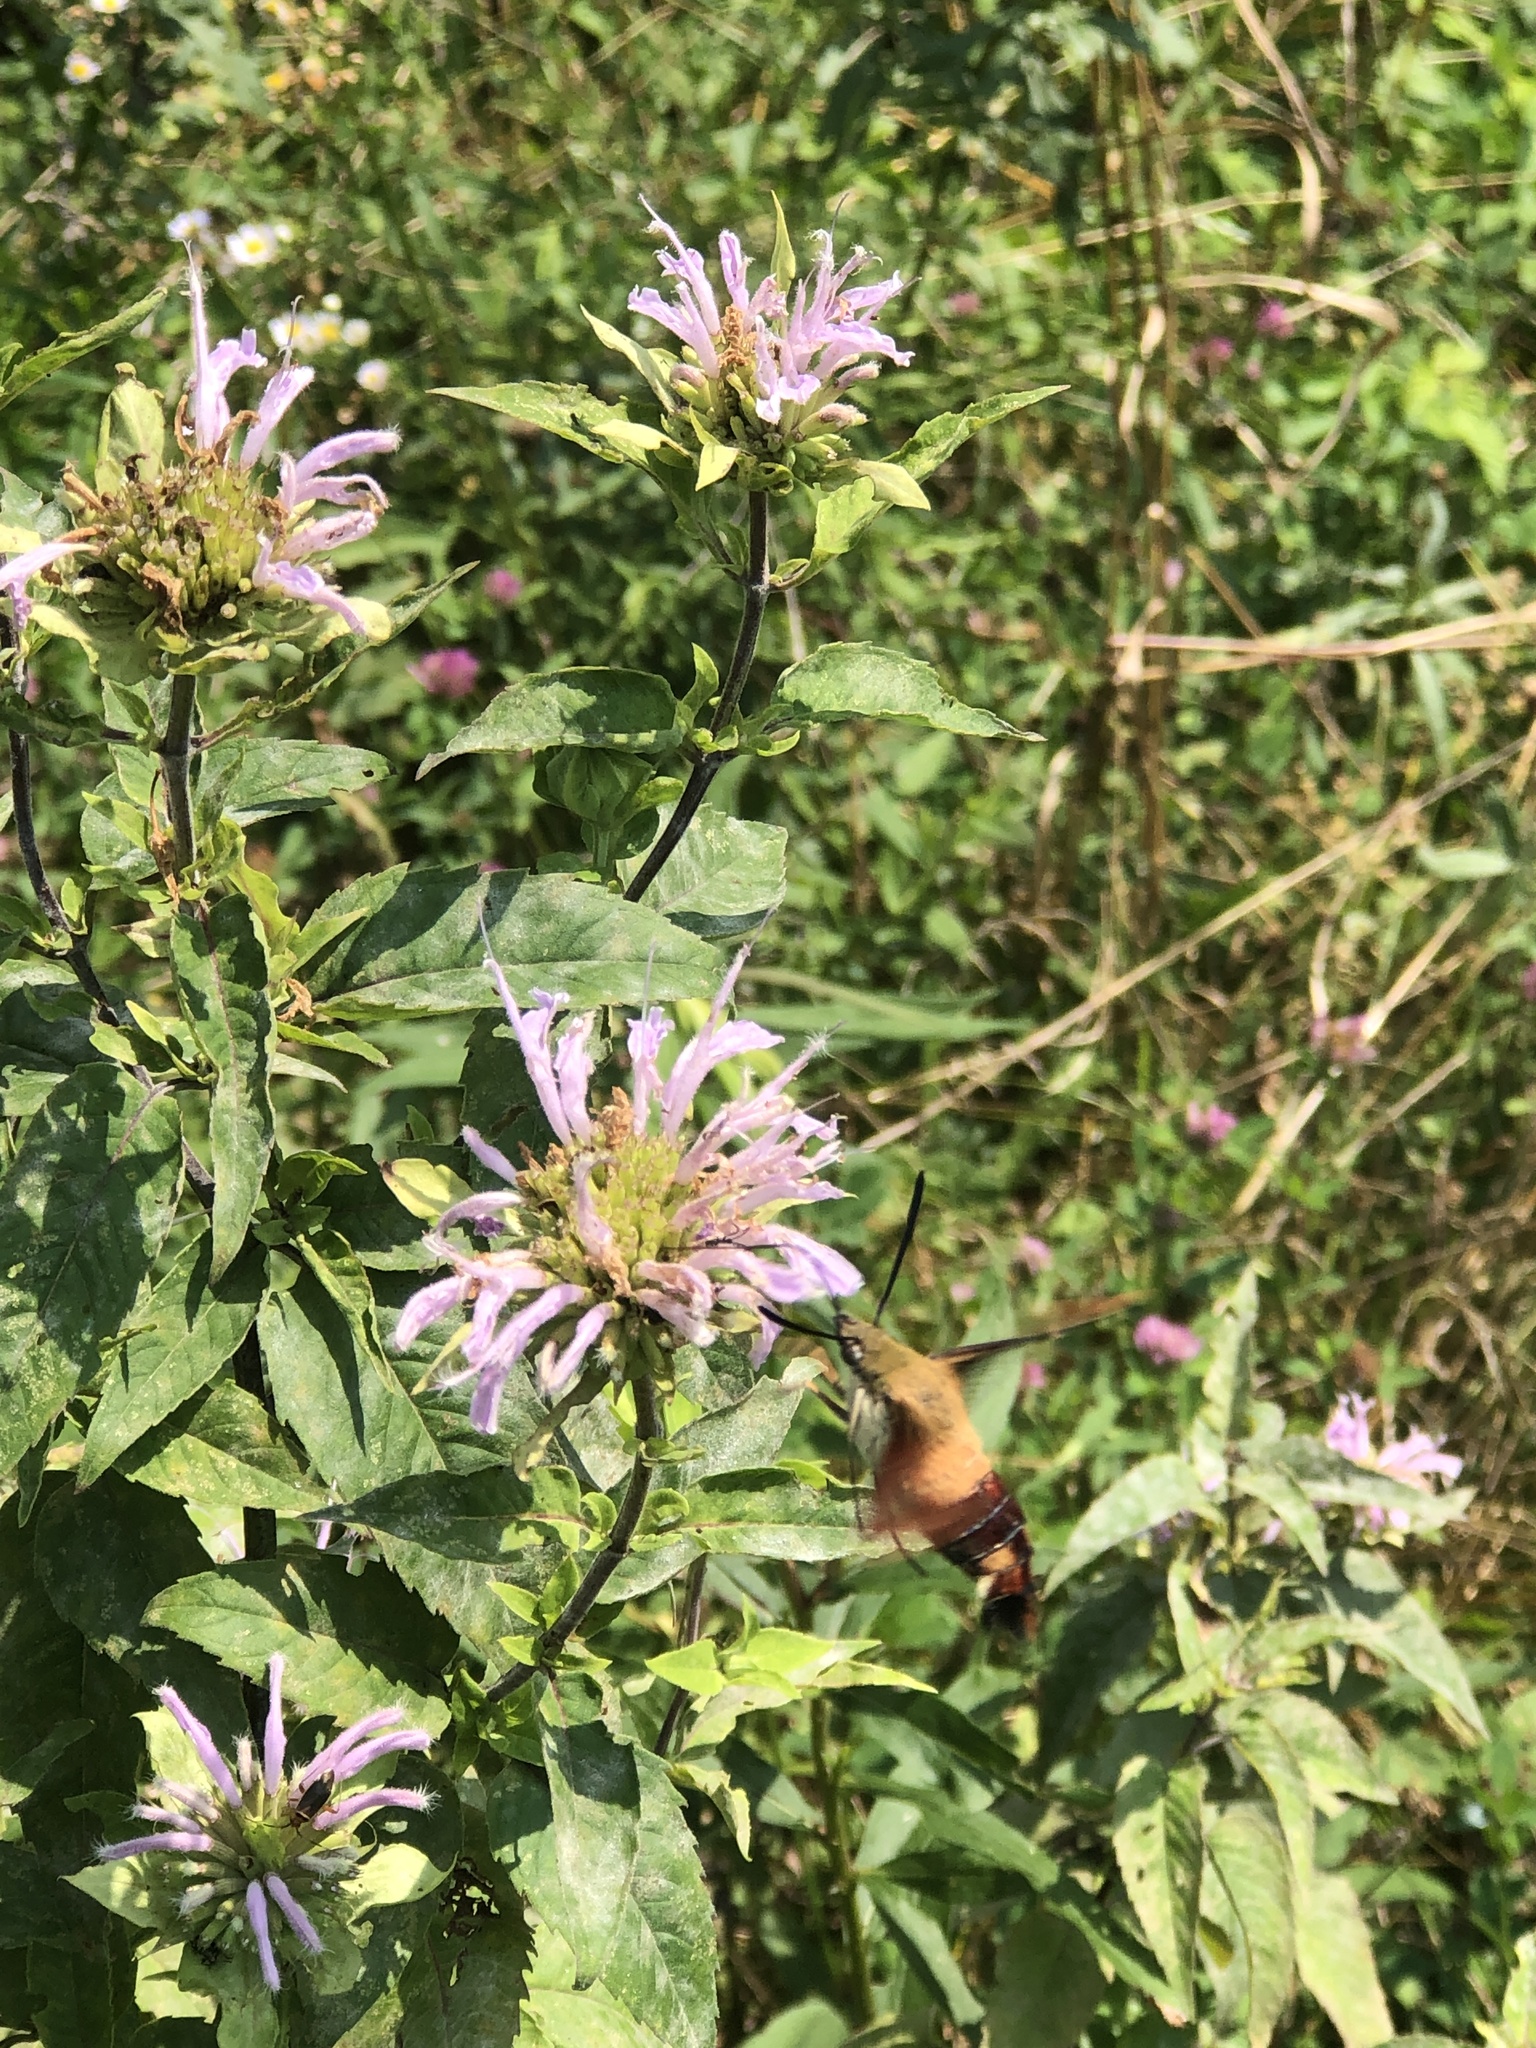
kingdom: Animalia
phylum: Arthropoda
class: Insecta
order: Lepidoptera
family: Sphingidae
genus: Hemaris
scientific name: Hemaris thysbe
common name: Common clear-wing
